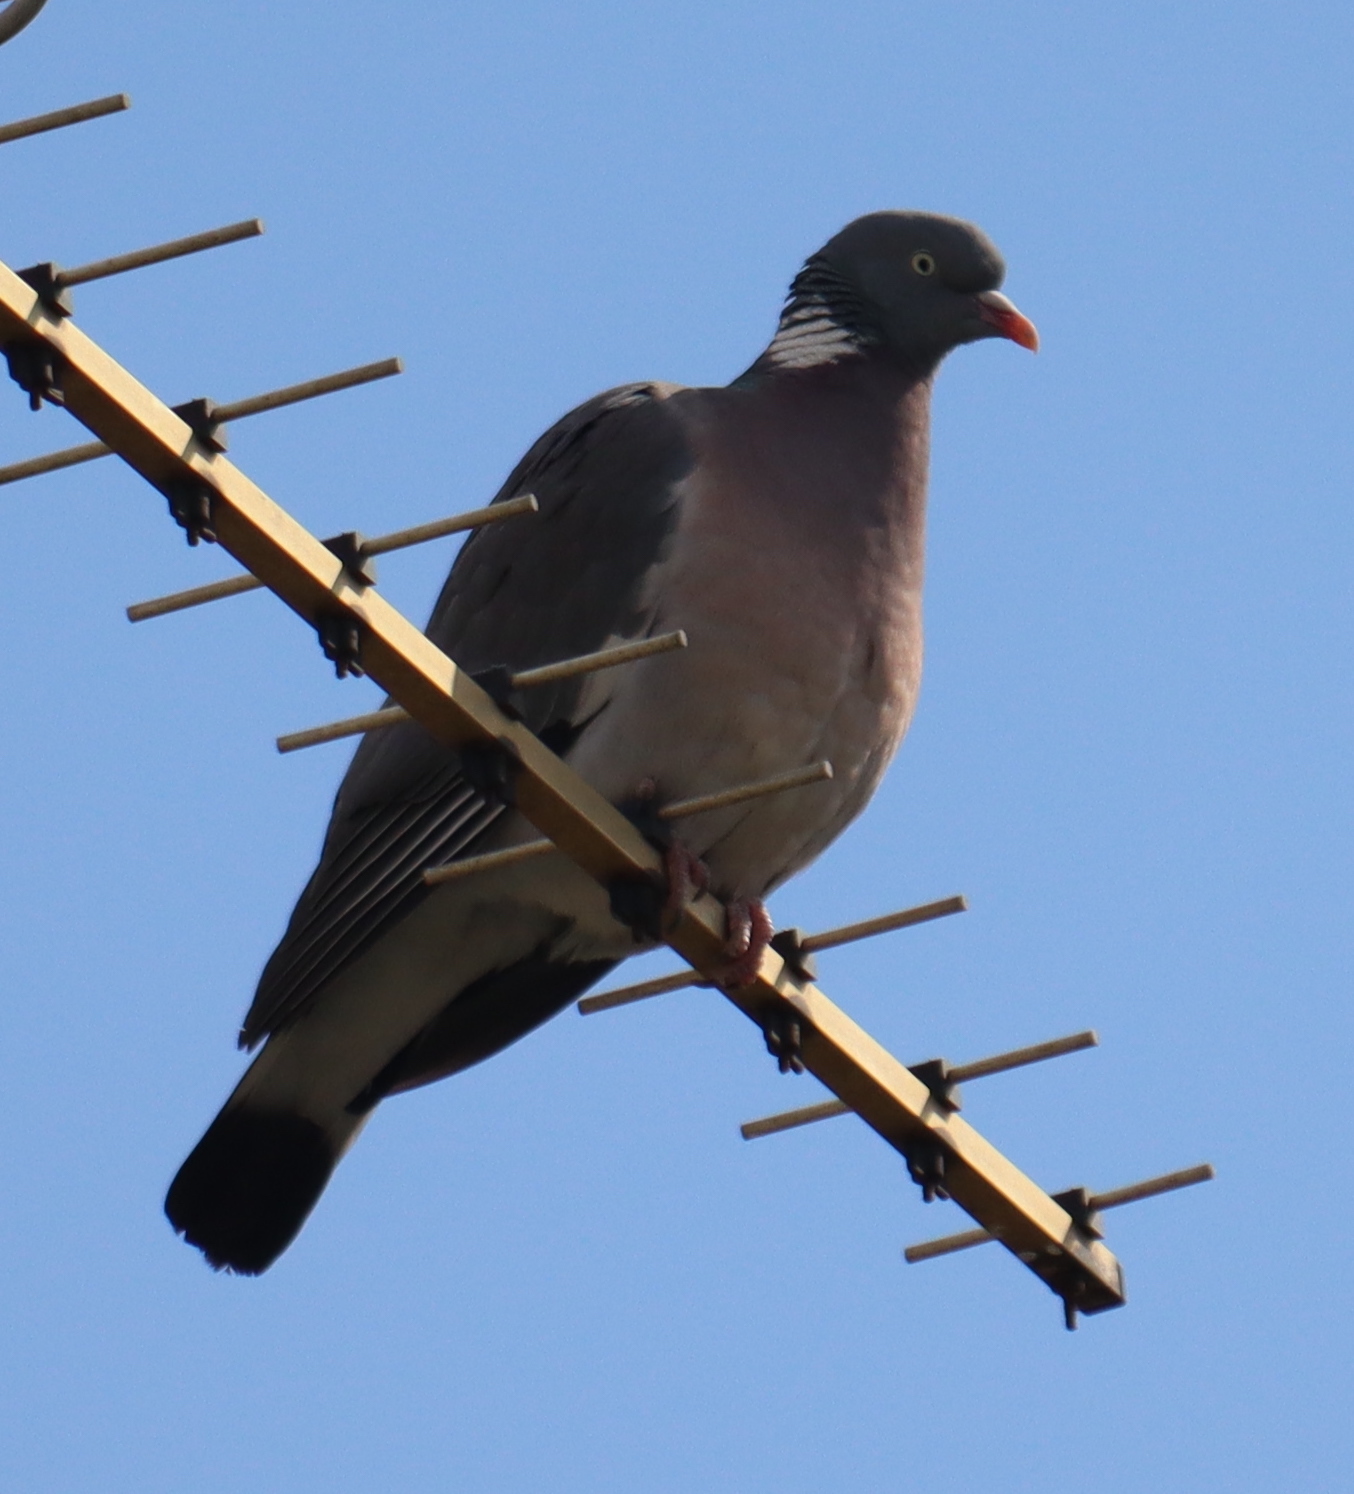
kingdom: Animalia
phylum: Chordata
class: Aves
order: Columbiformes
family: Columbidae
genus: Columba
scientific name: Columba palumbus
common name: Common wood pigeon
